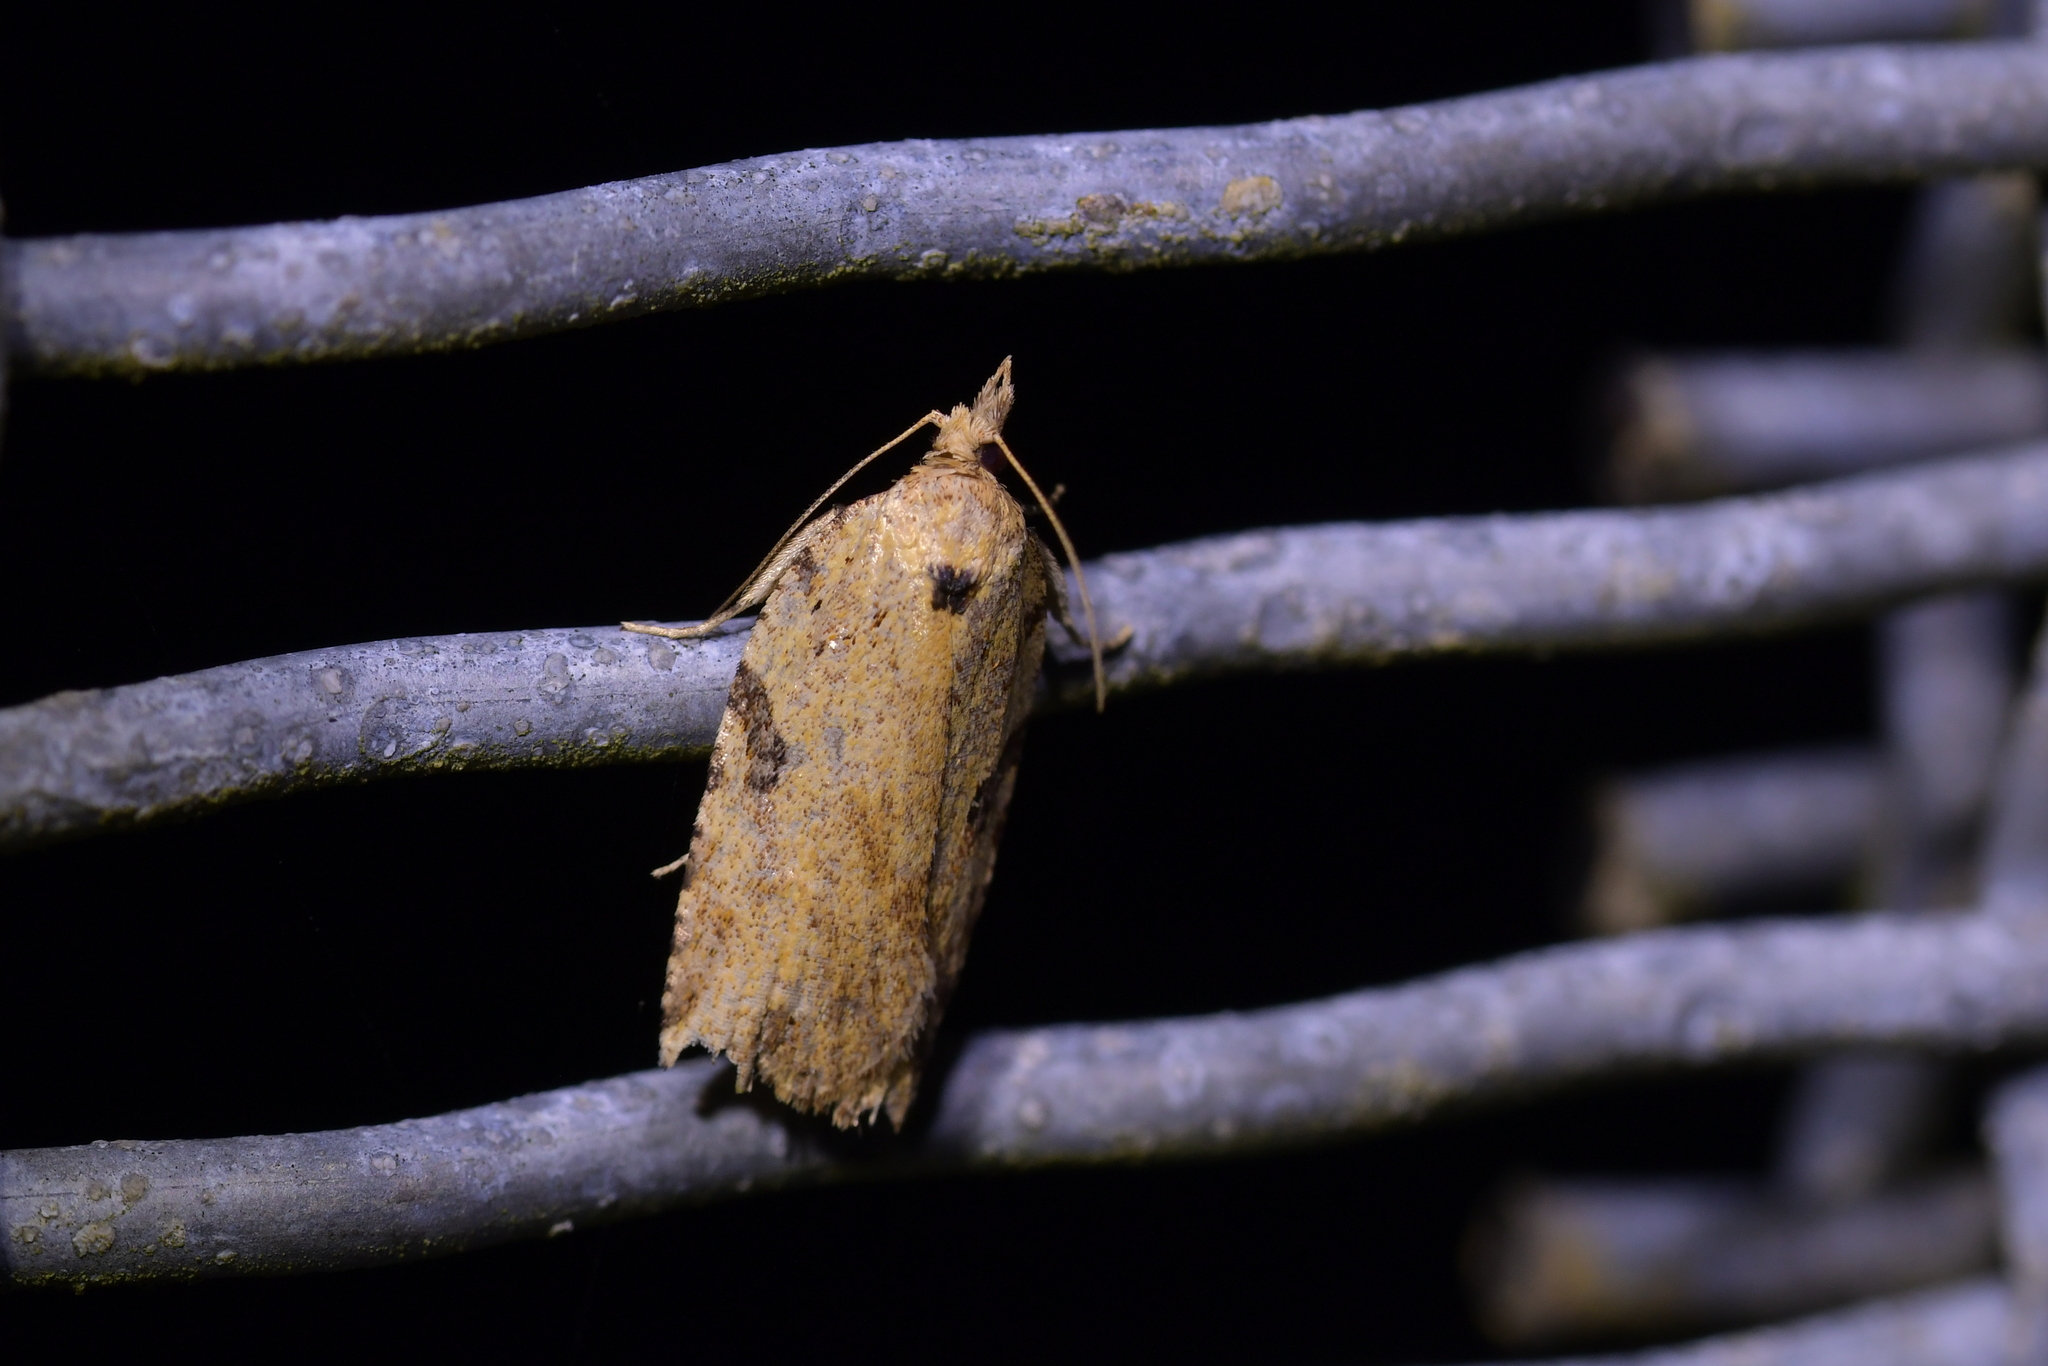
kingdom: Animalia
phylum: Arthropoda
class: Insecta
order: Lepidoptera
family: Tortricidae
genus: Ctenopseustis
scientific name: Ctenopseustis obliquana
